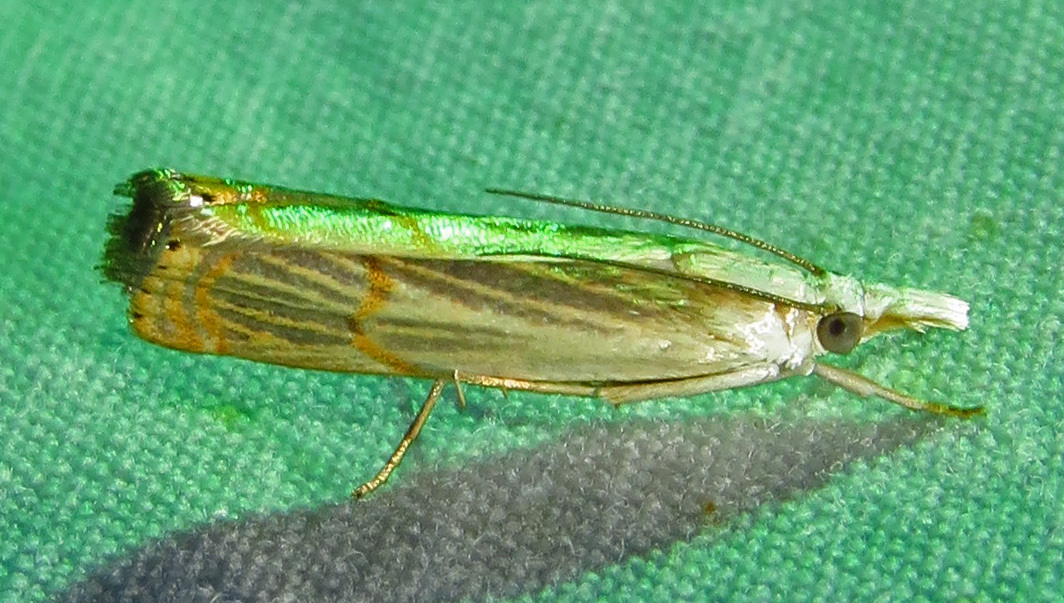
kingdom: Animalia
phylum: Arthropoda
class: Insecta
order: Lepidoptera
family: Crambidae
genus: Parapediasia
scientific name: Parapediasia decorellus
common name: Graceful grass-veneer
